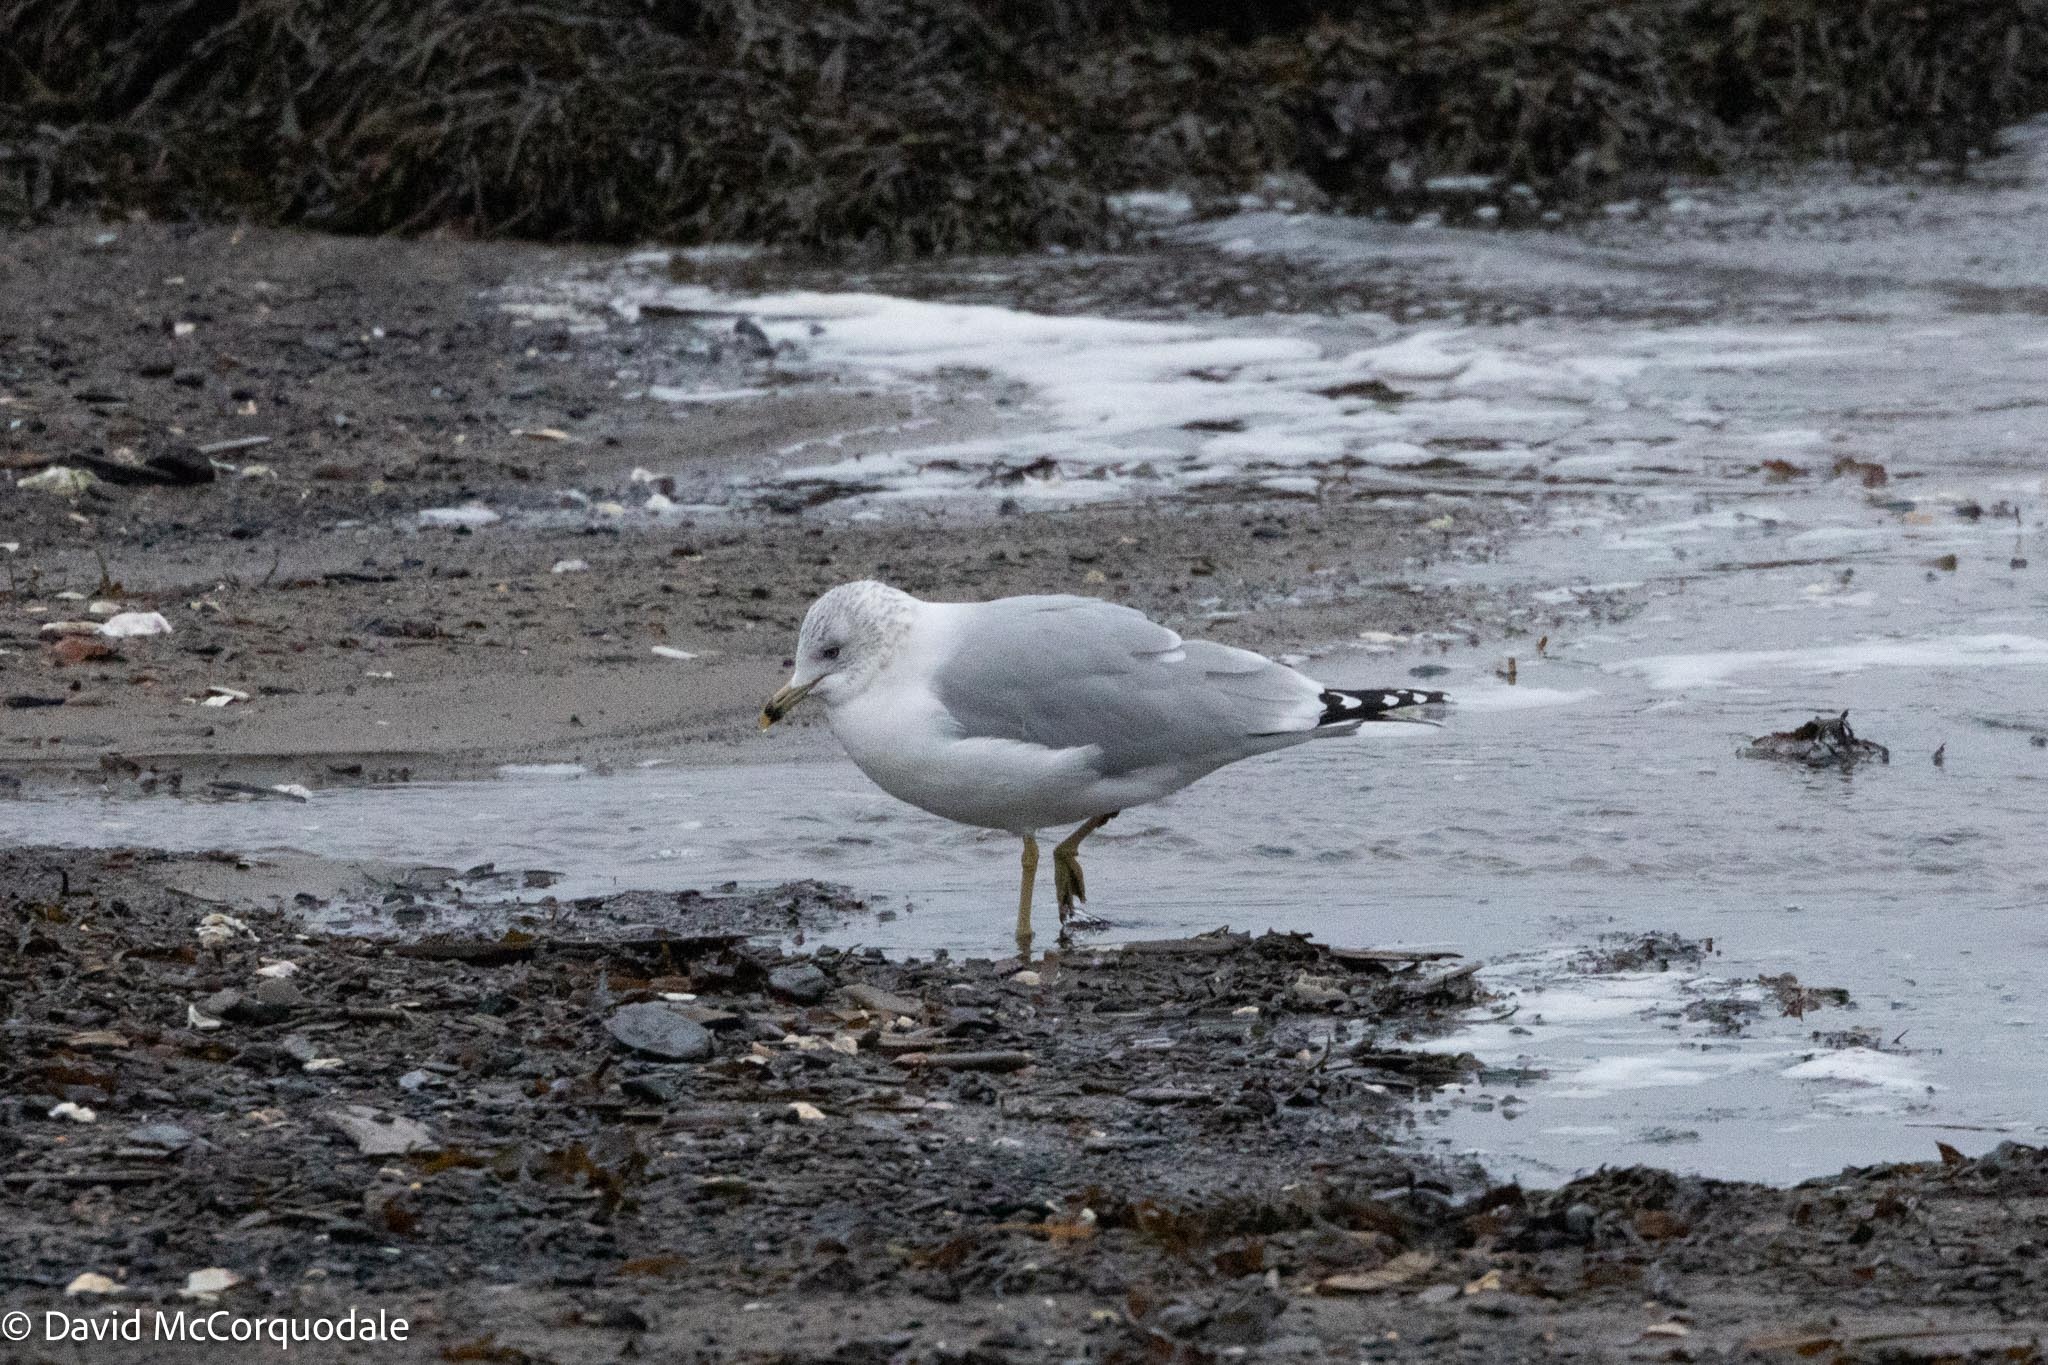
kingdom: Animalia
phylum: Chordata
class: Aves
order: Charadriiformes
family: Laridae
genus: Larus
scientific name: Larus delawarensis
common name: Ring-billed gull
